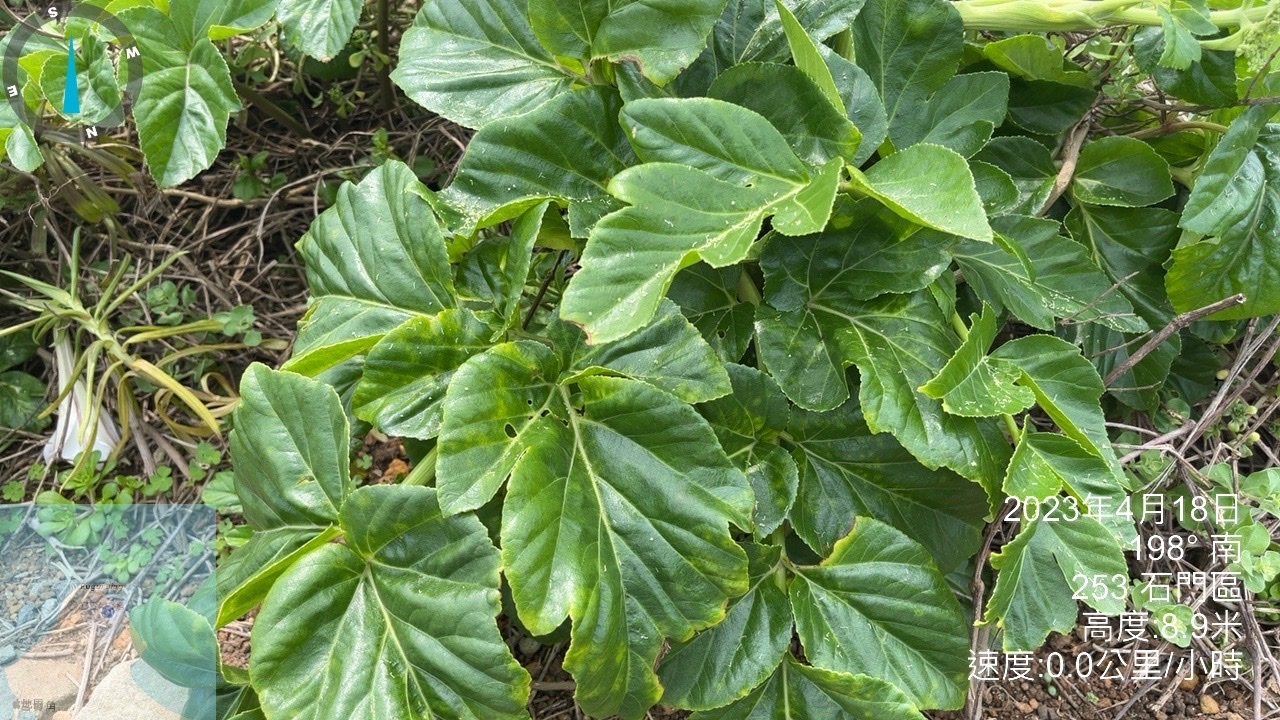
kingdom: Plantae
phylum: Tracheophyta
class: Magnoliopsida
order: Apiales
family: Apiaceae
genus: Angelica
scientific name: Angelica hirsutiflora
